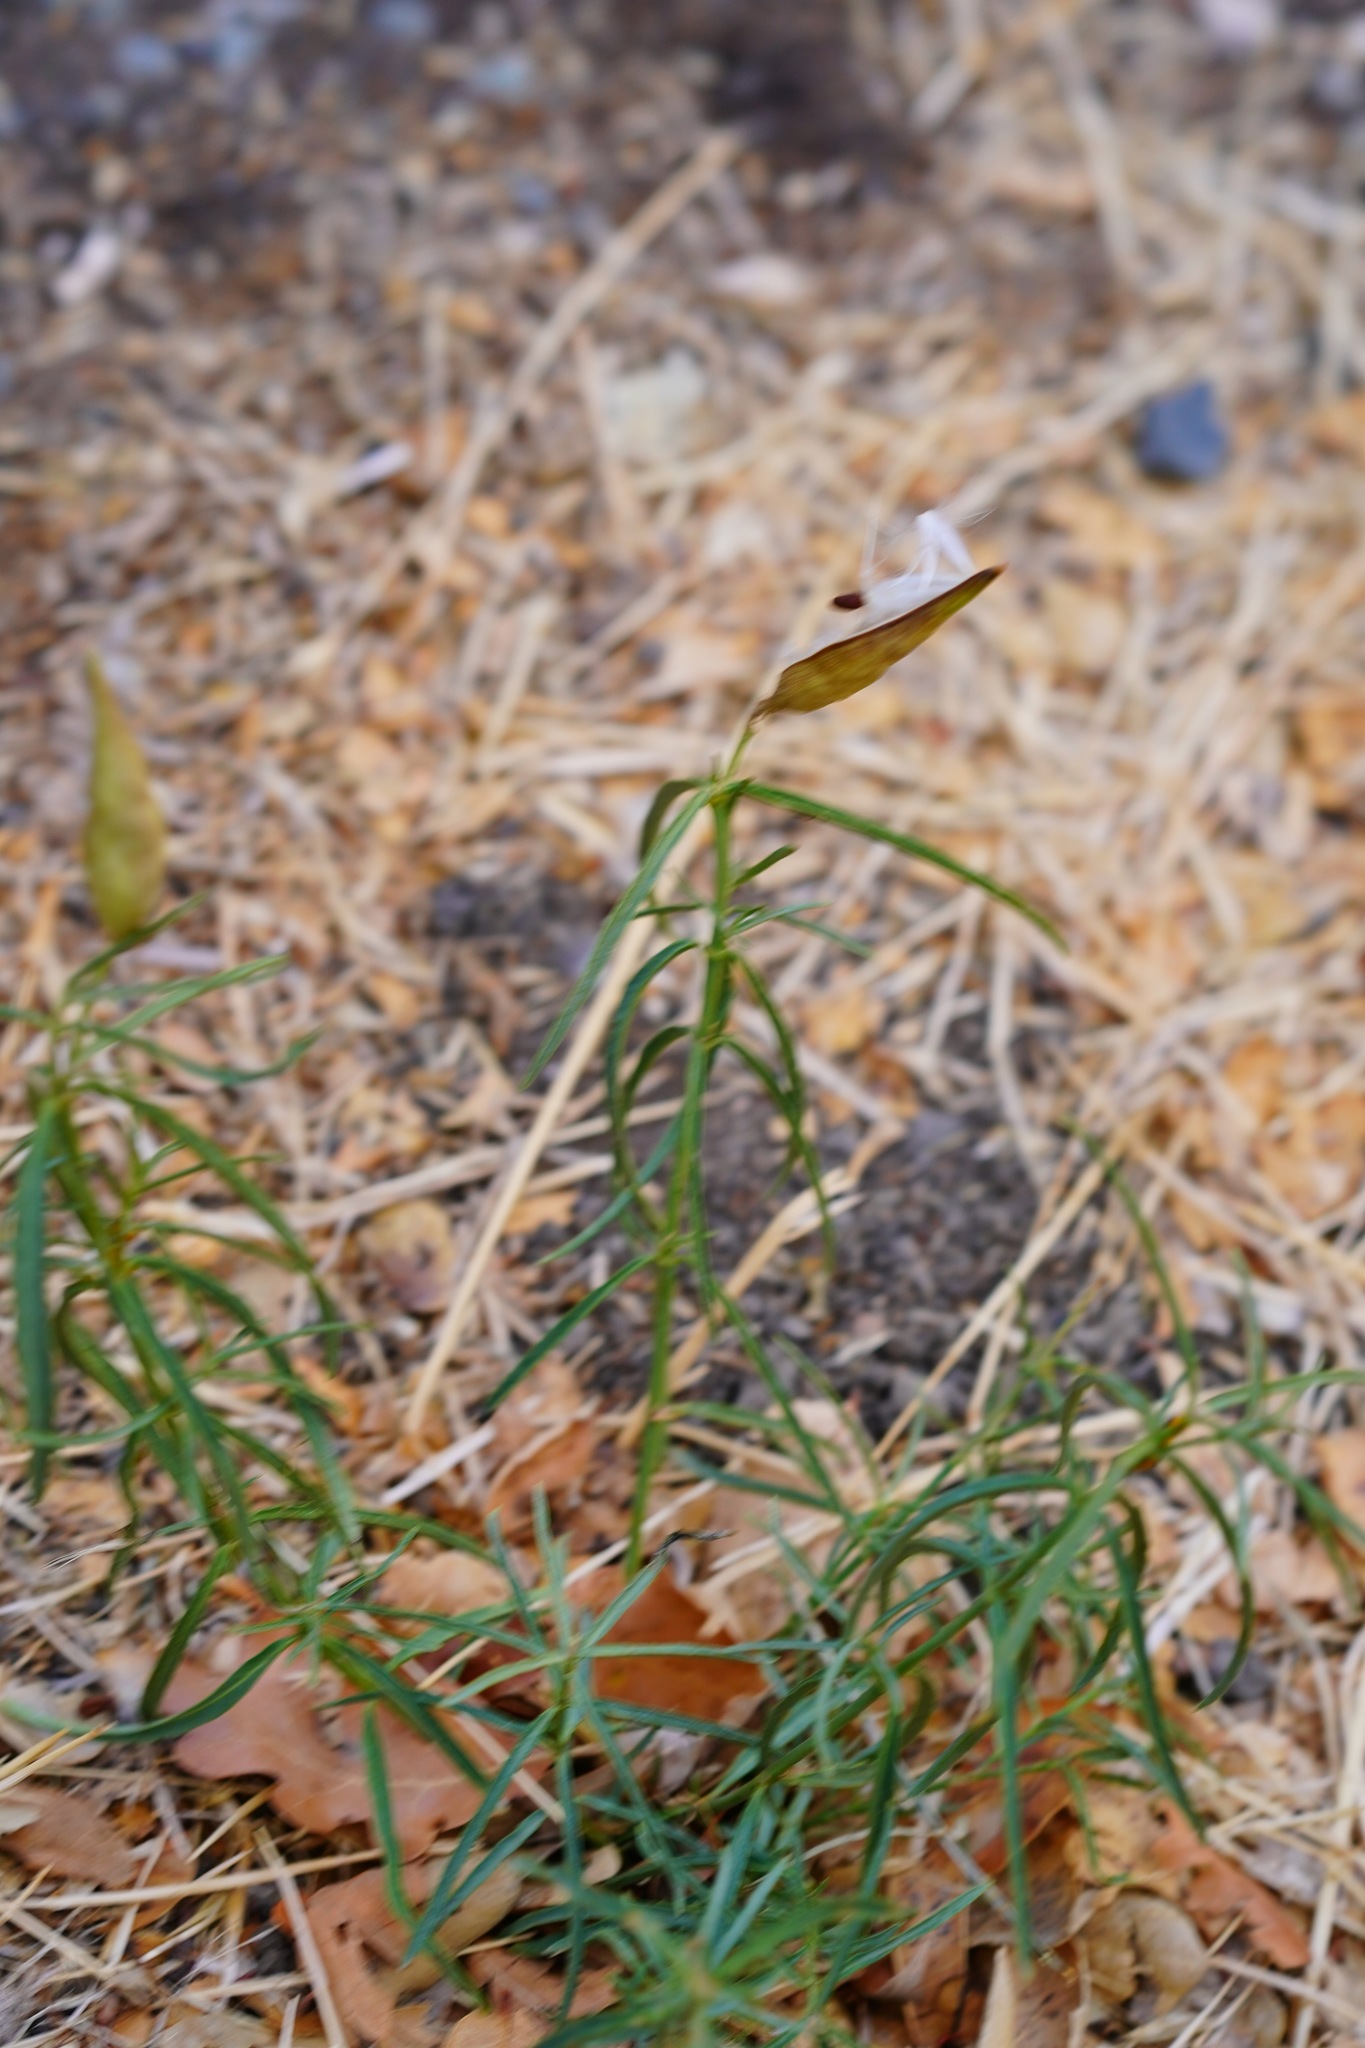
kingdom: Plantae
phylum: Tracheophyta
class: Magnoliopsida
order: Gentianales
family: Apocynaceae
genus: Asclepias
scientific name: Asclepias fascicularis
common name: Mexican milkweed
